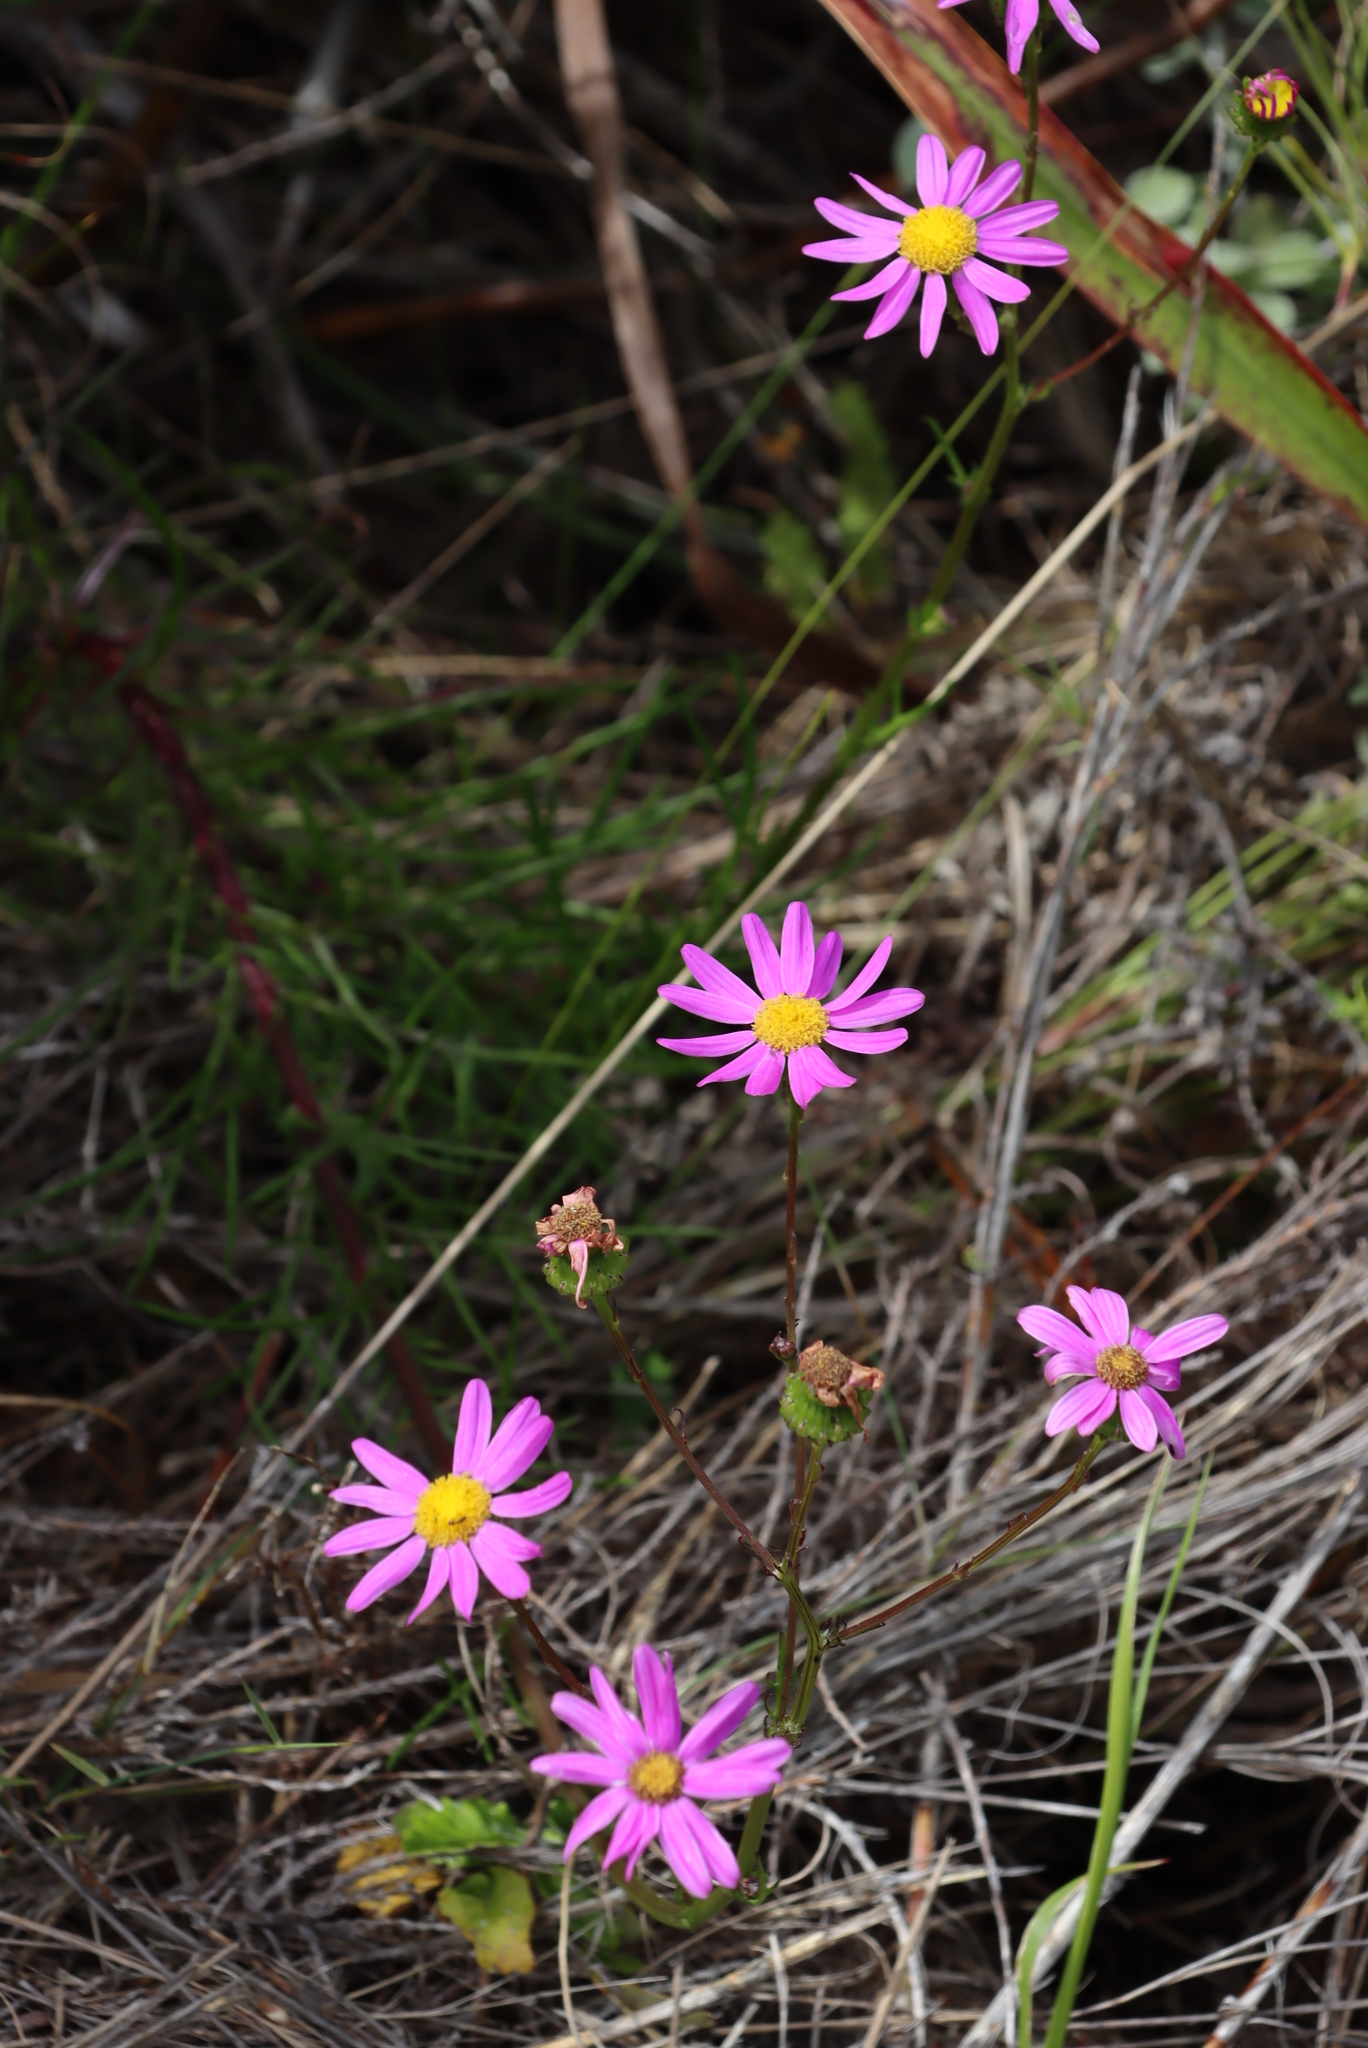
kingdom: Plantae
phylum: Tracheophyta
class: Magnoliopsida
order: Asterales
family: Asteraceae
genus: Senecio
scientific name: Senecio umbellatus
